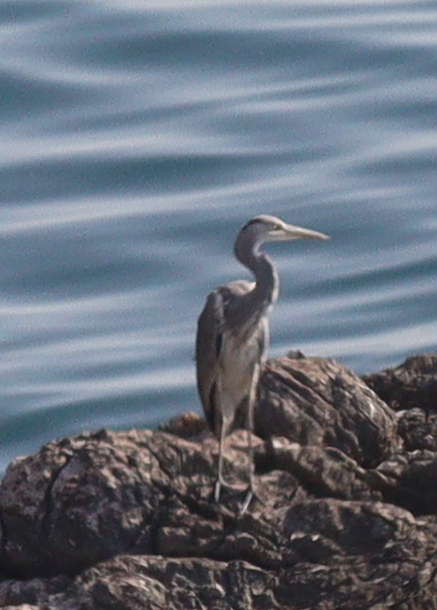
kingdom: Animalia
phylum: Chordata
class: Aves
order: Pelecaniformes
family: Ardeidae
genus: Ardea
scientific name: Ardea cinerea
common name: Grey heron
